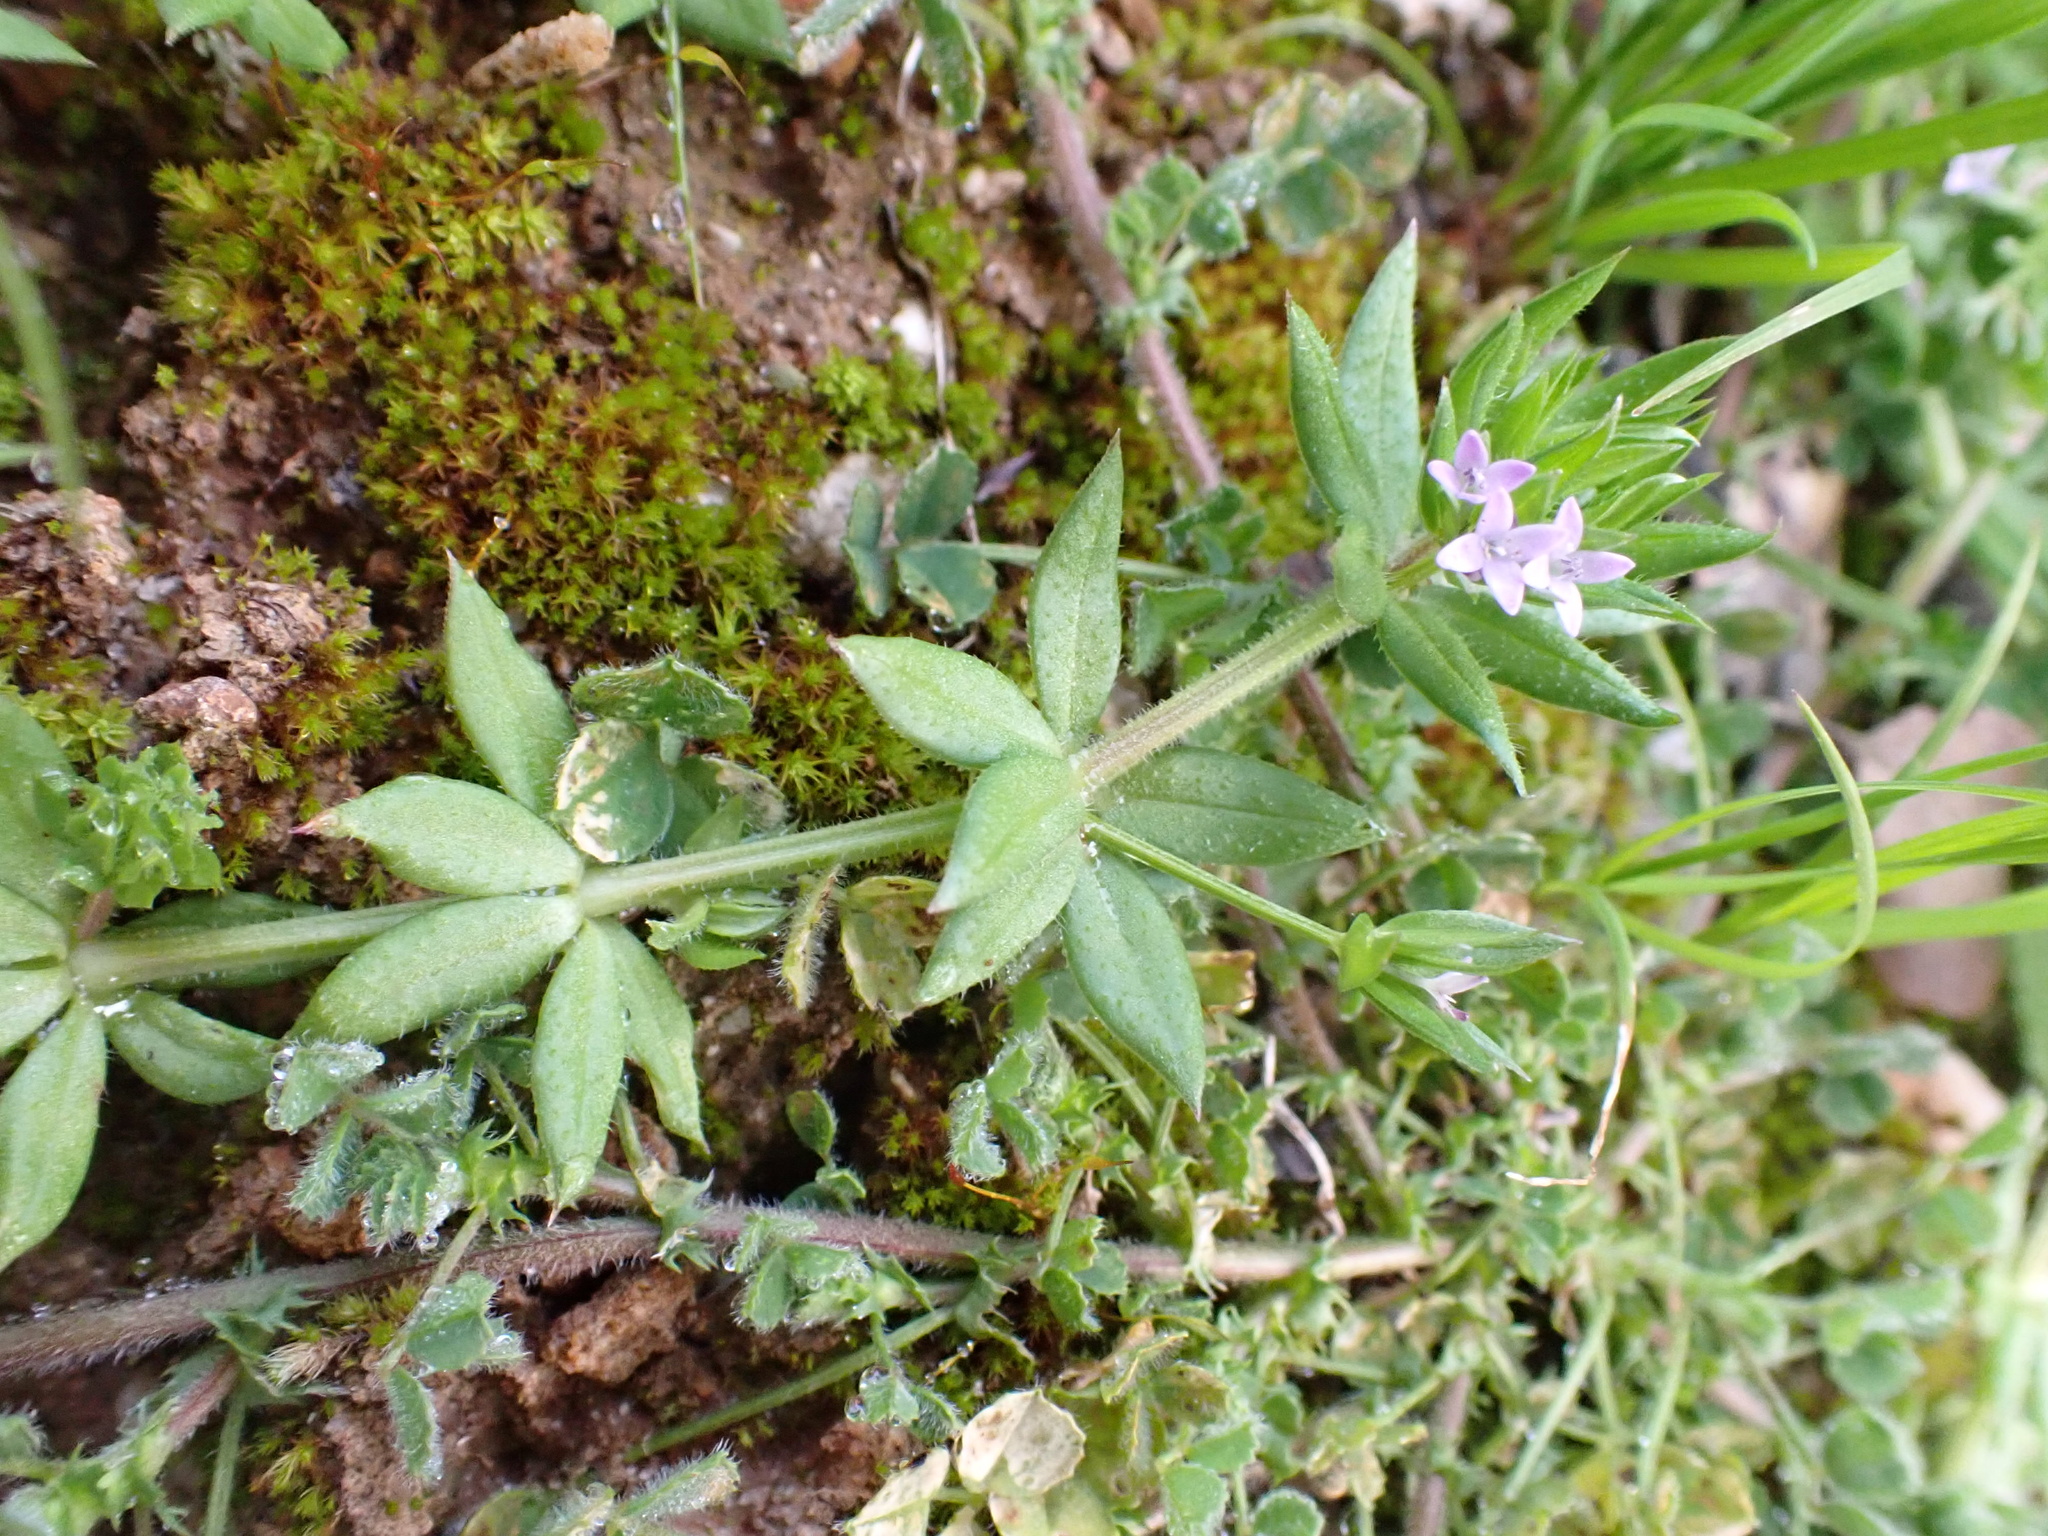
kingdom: Plantae
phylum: Tracheophyta
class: Magnoliopsida
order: Gentianales
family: Rubiaceae
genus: Sherardia
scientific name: Sherardia arvensis
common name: Field madder
